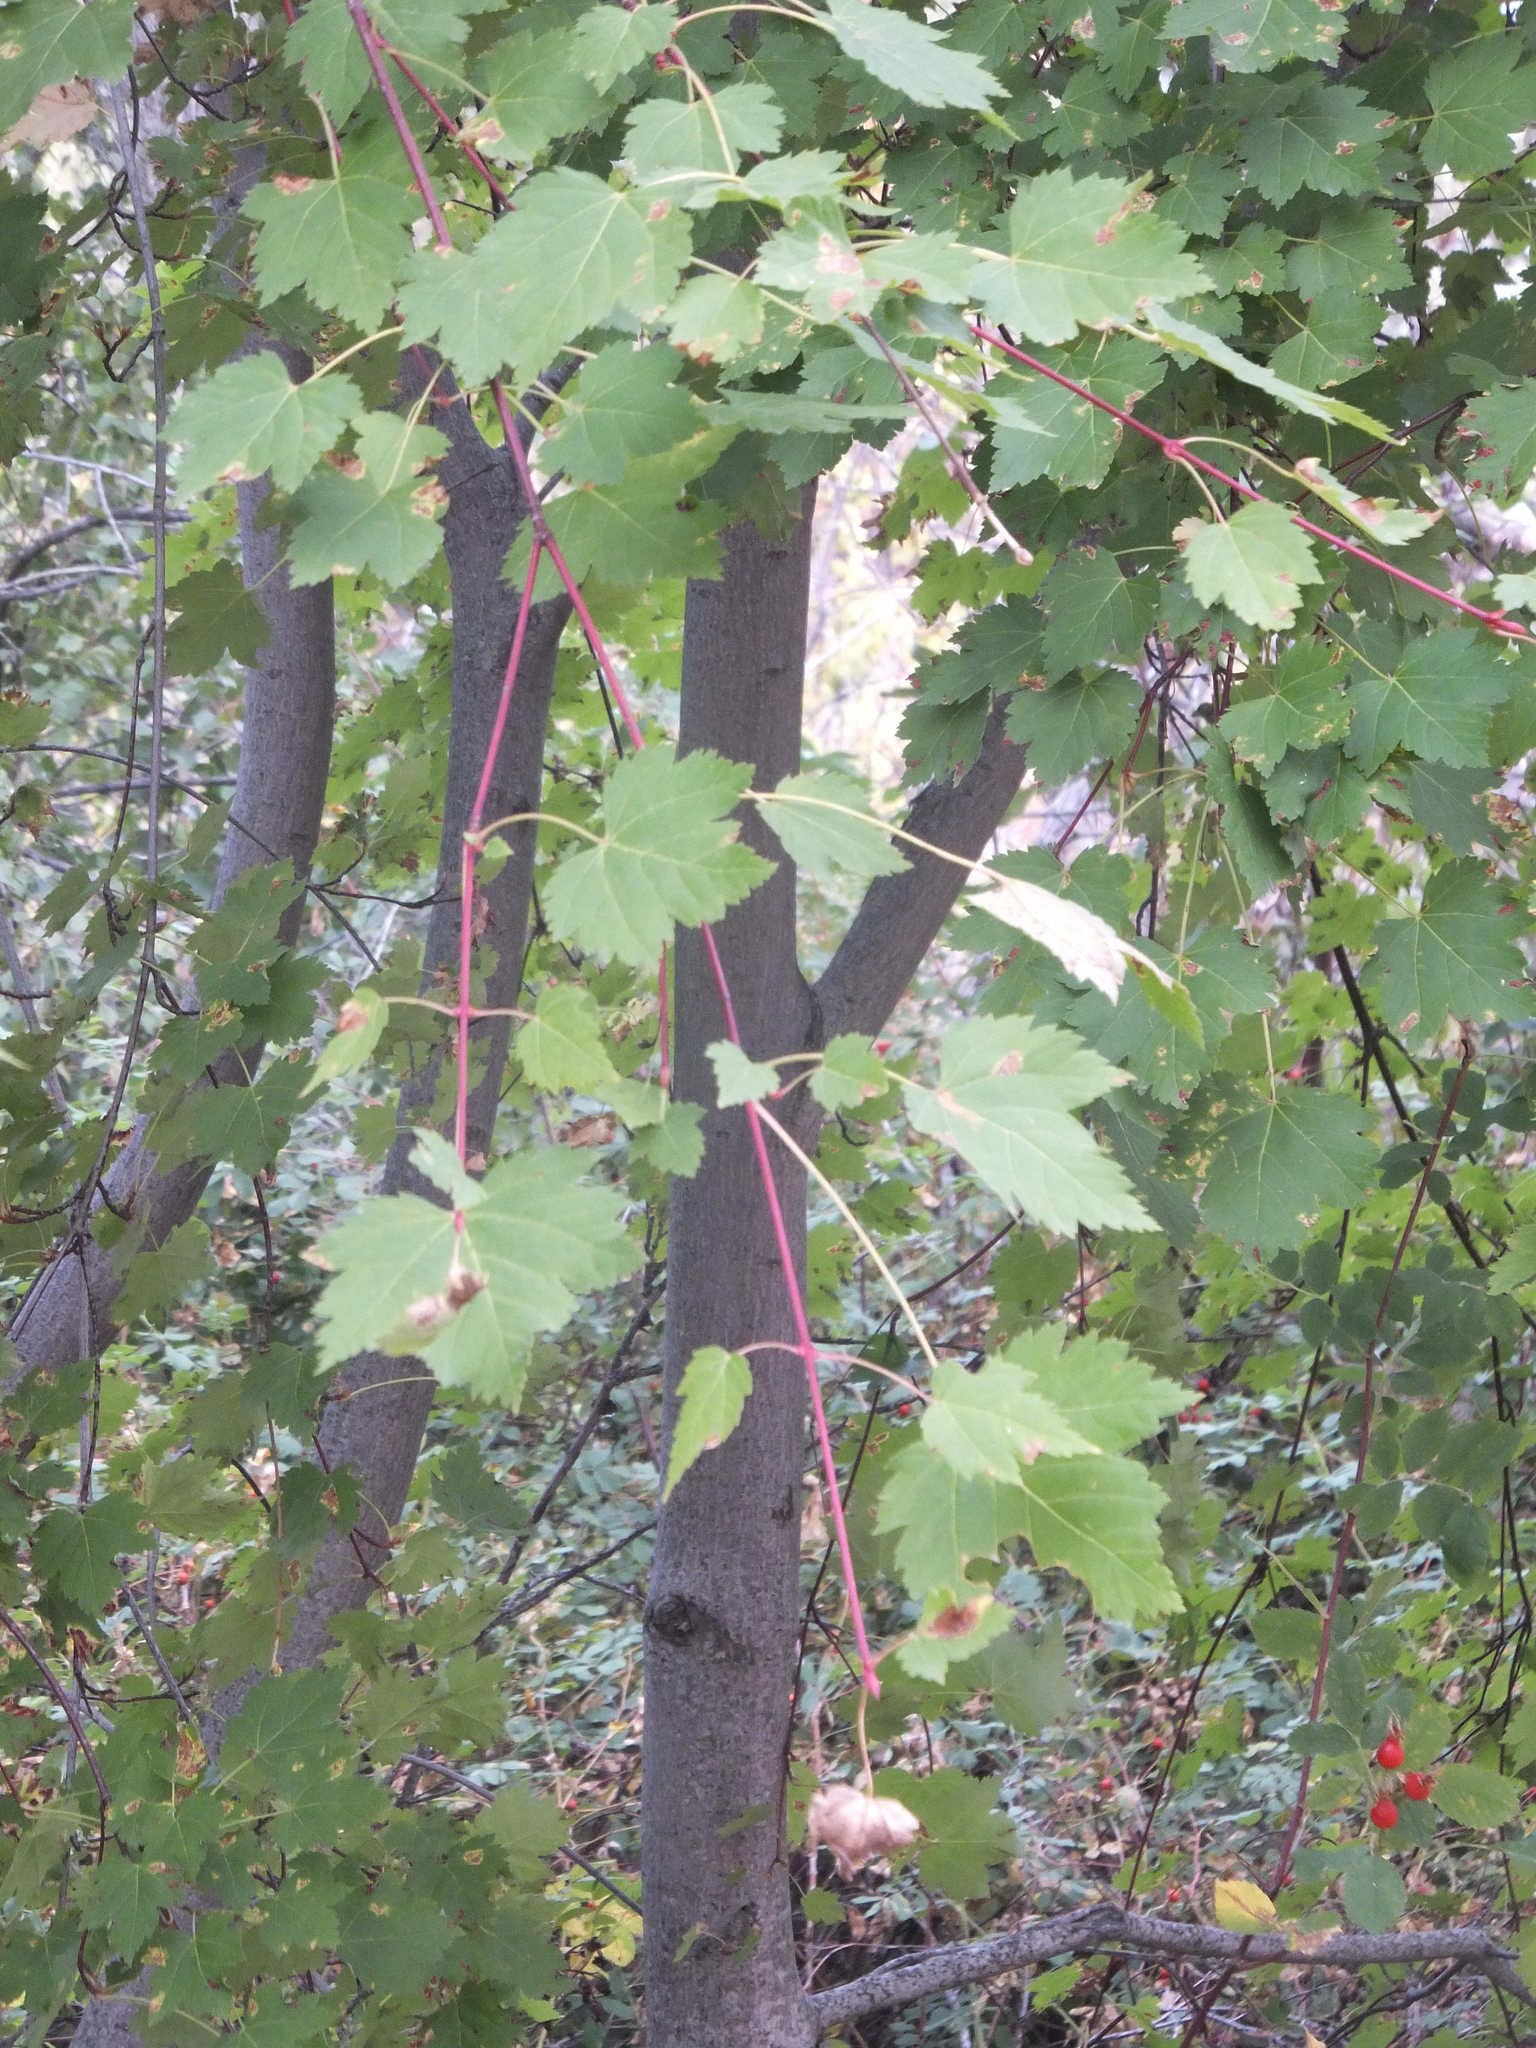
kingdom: Plantae
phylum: Tracheophyta
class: Magnoliopsida
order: Sapindales
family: Sapindaceae
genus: Acer
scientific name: Acer glabrum
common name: Rocky mountain maple
